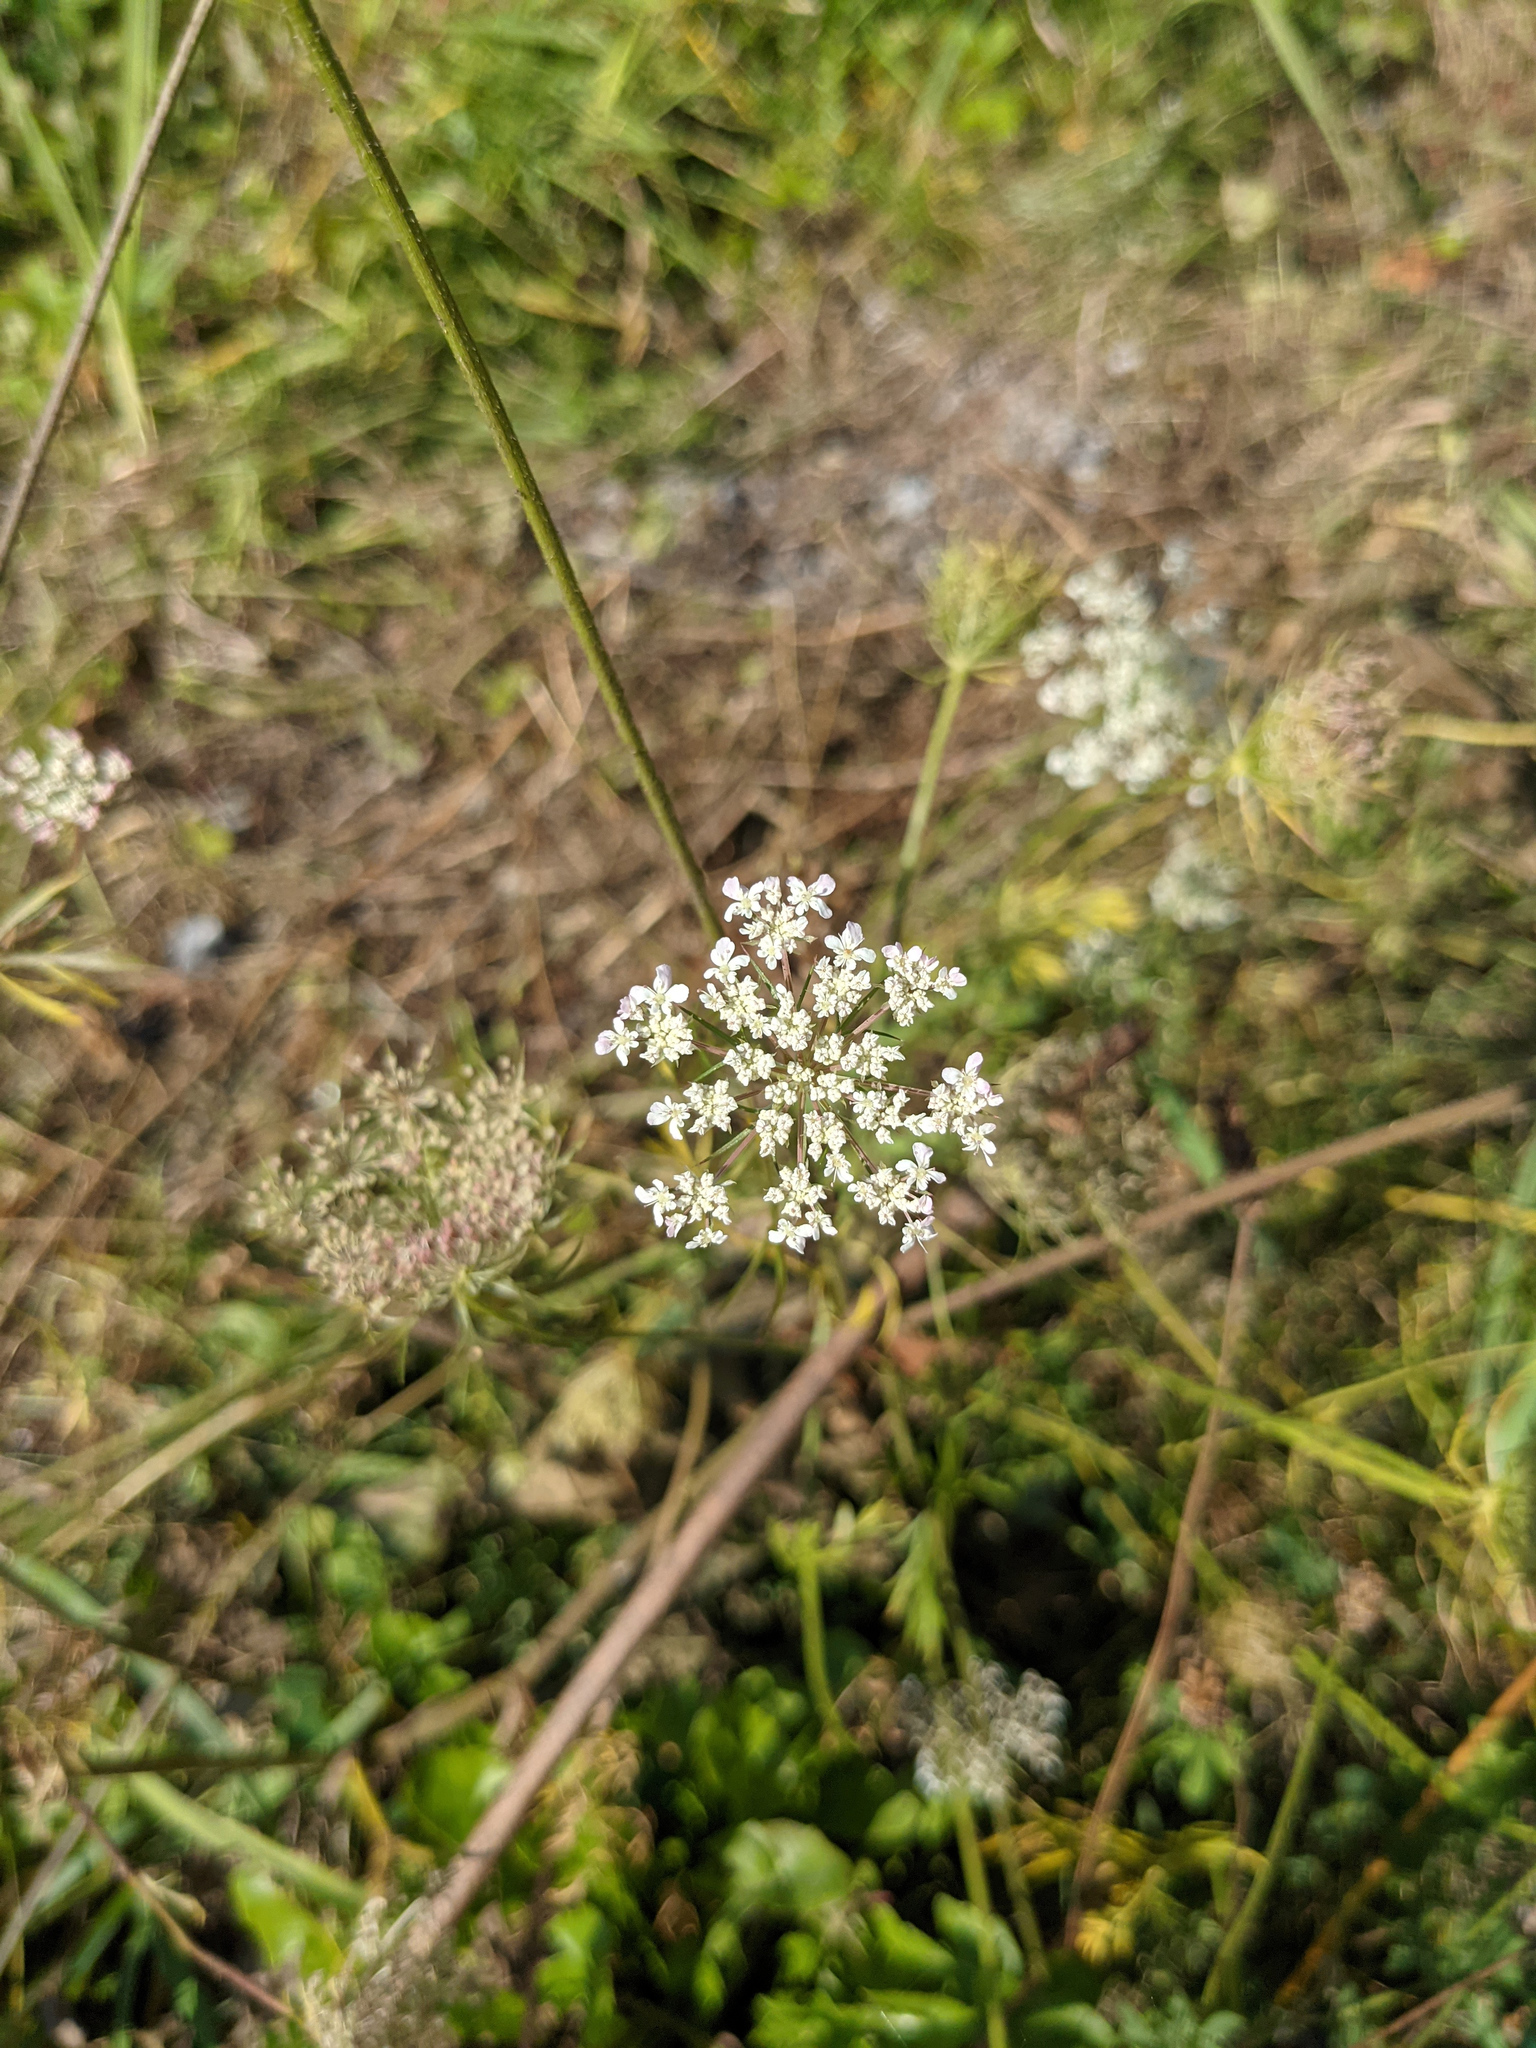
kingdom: Plantae
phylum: Tracheophyta
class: Magnoliopsida
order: Apiales
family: Apiaceae
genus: Daucus
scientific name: Daucus carota
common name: Wild carrot
